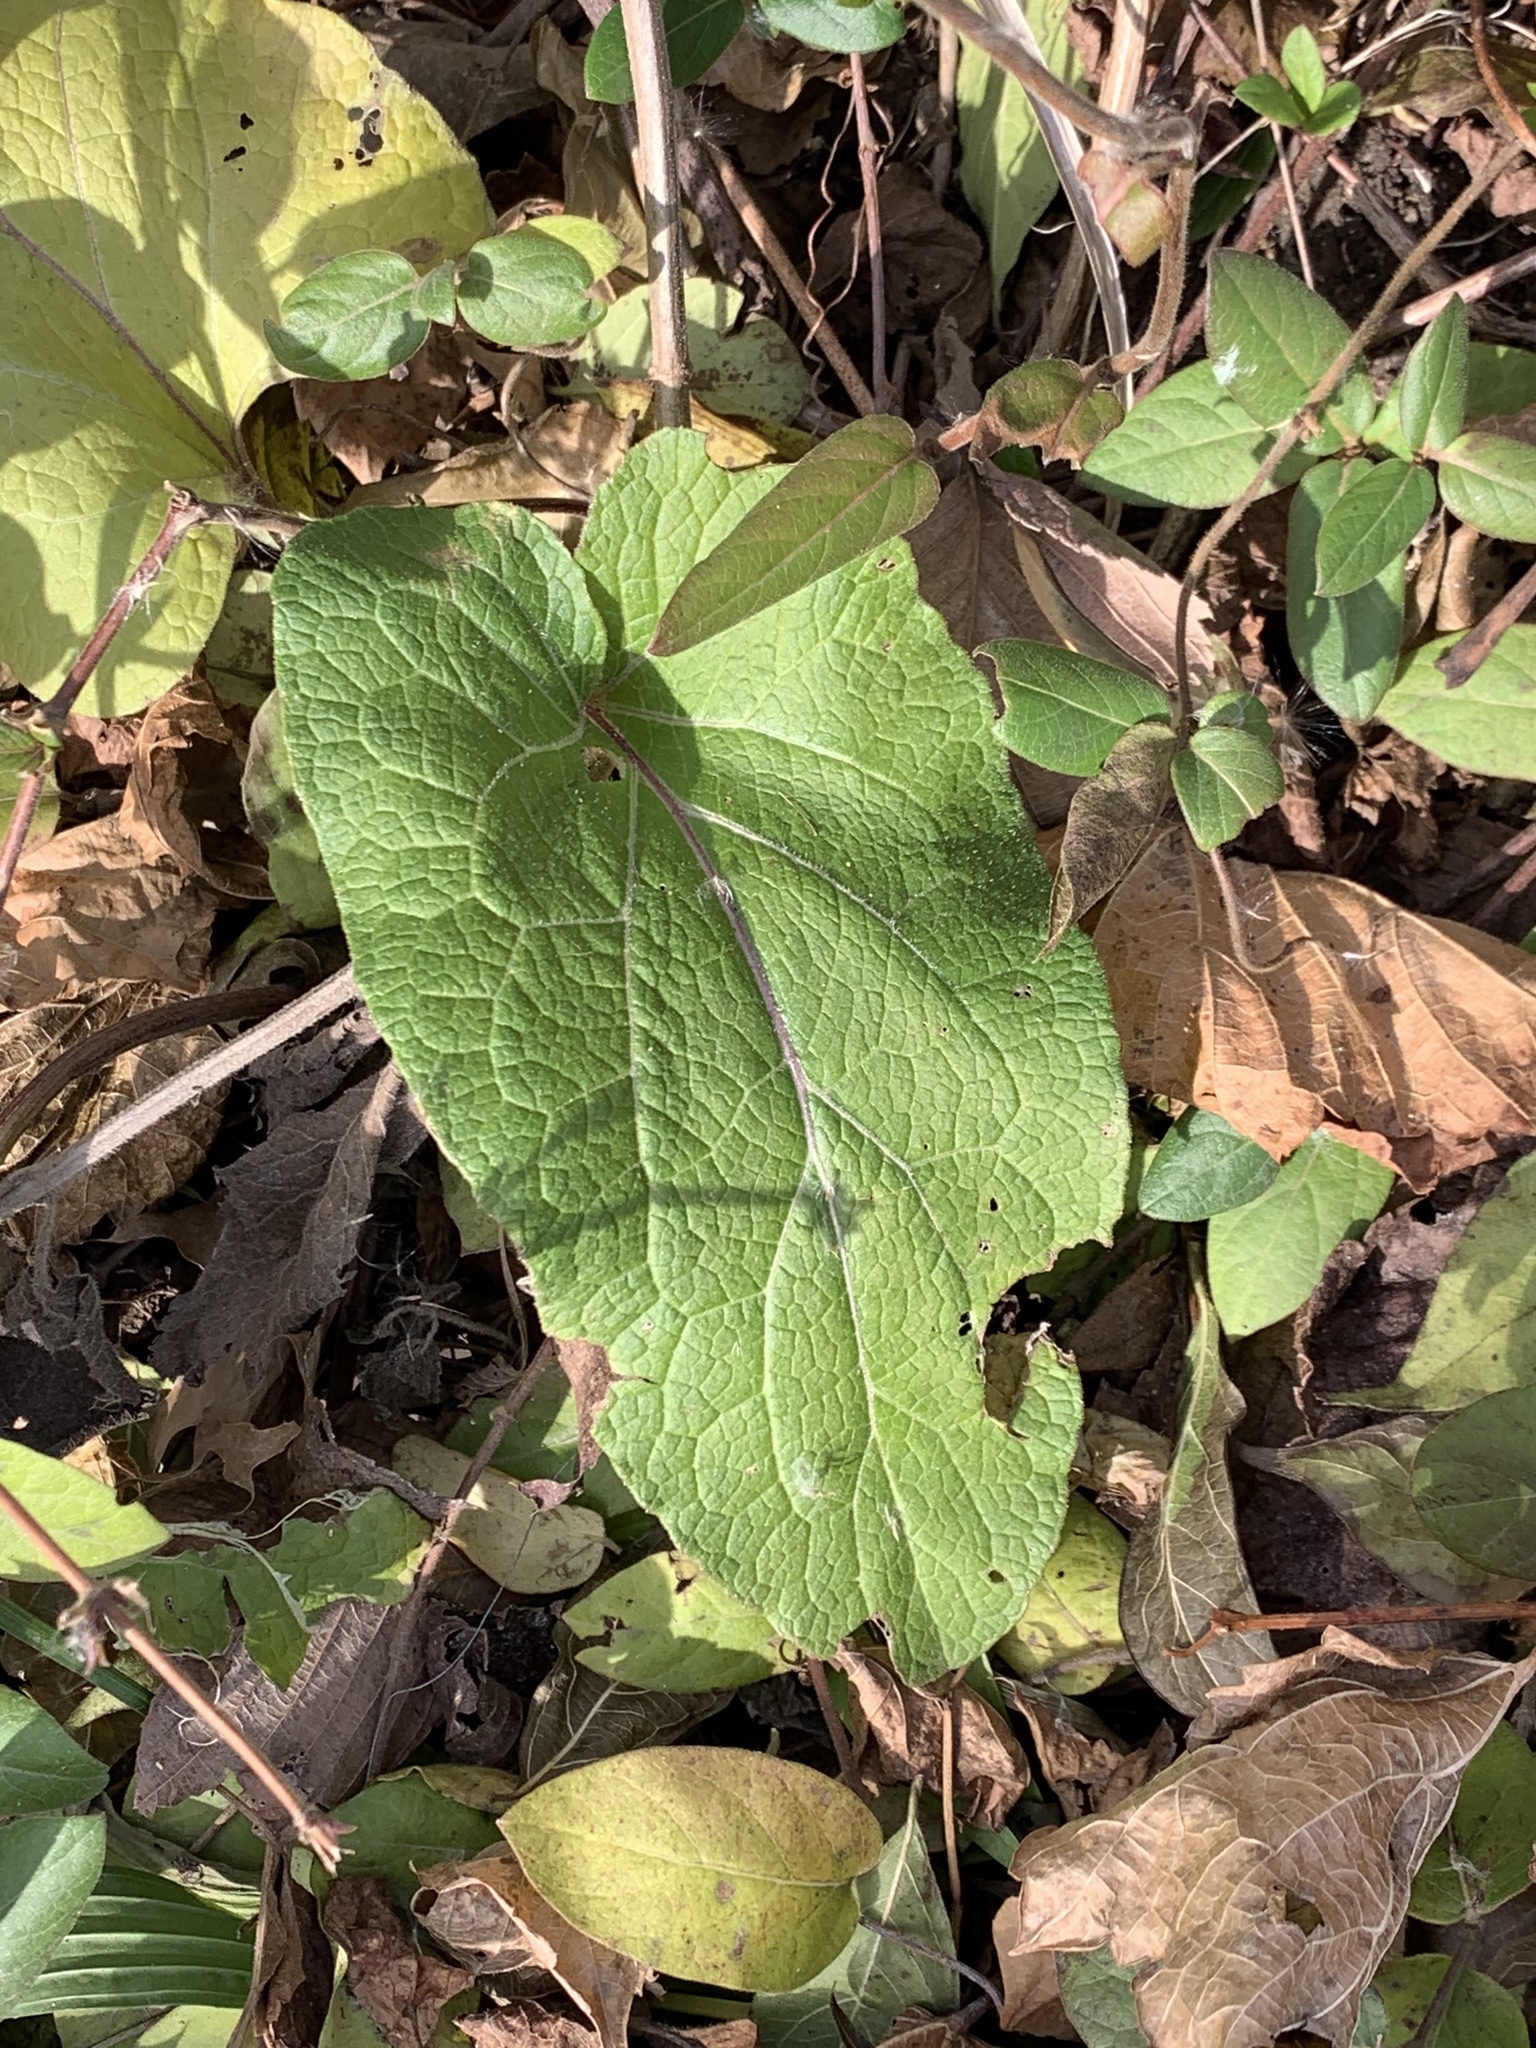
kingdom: Plantae
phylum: Tracheophyta
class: Magnoliopsida
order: Asterales
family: Asteraceae
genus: Arctium
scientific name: Arctium
